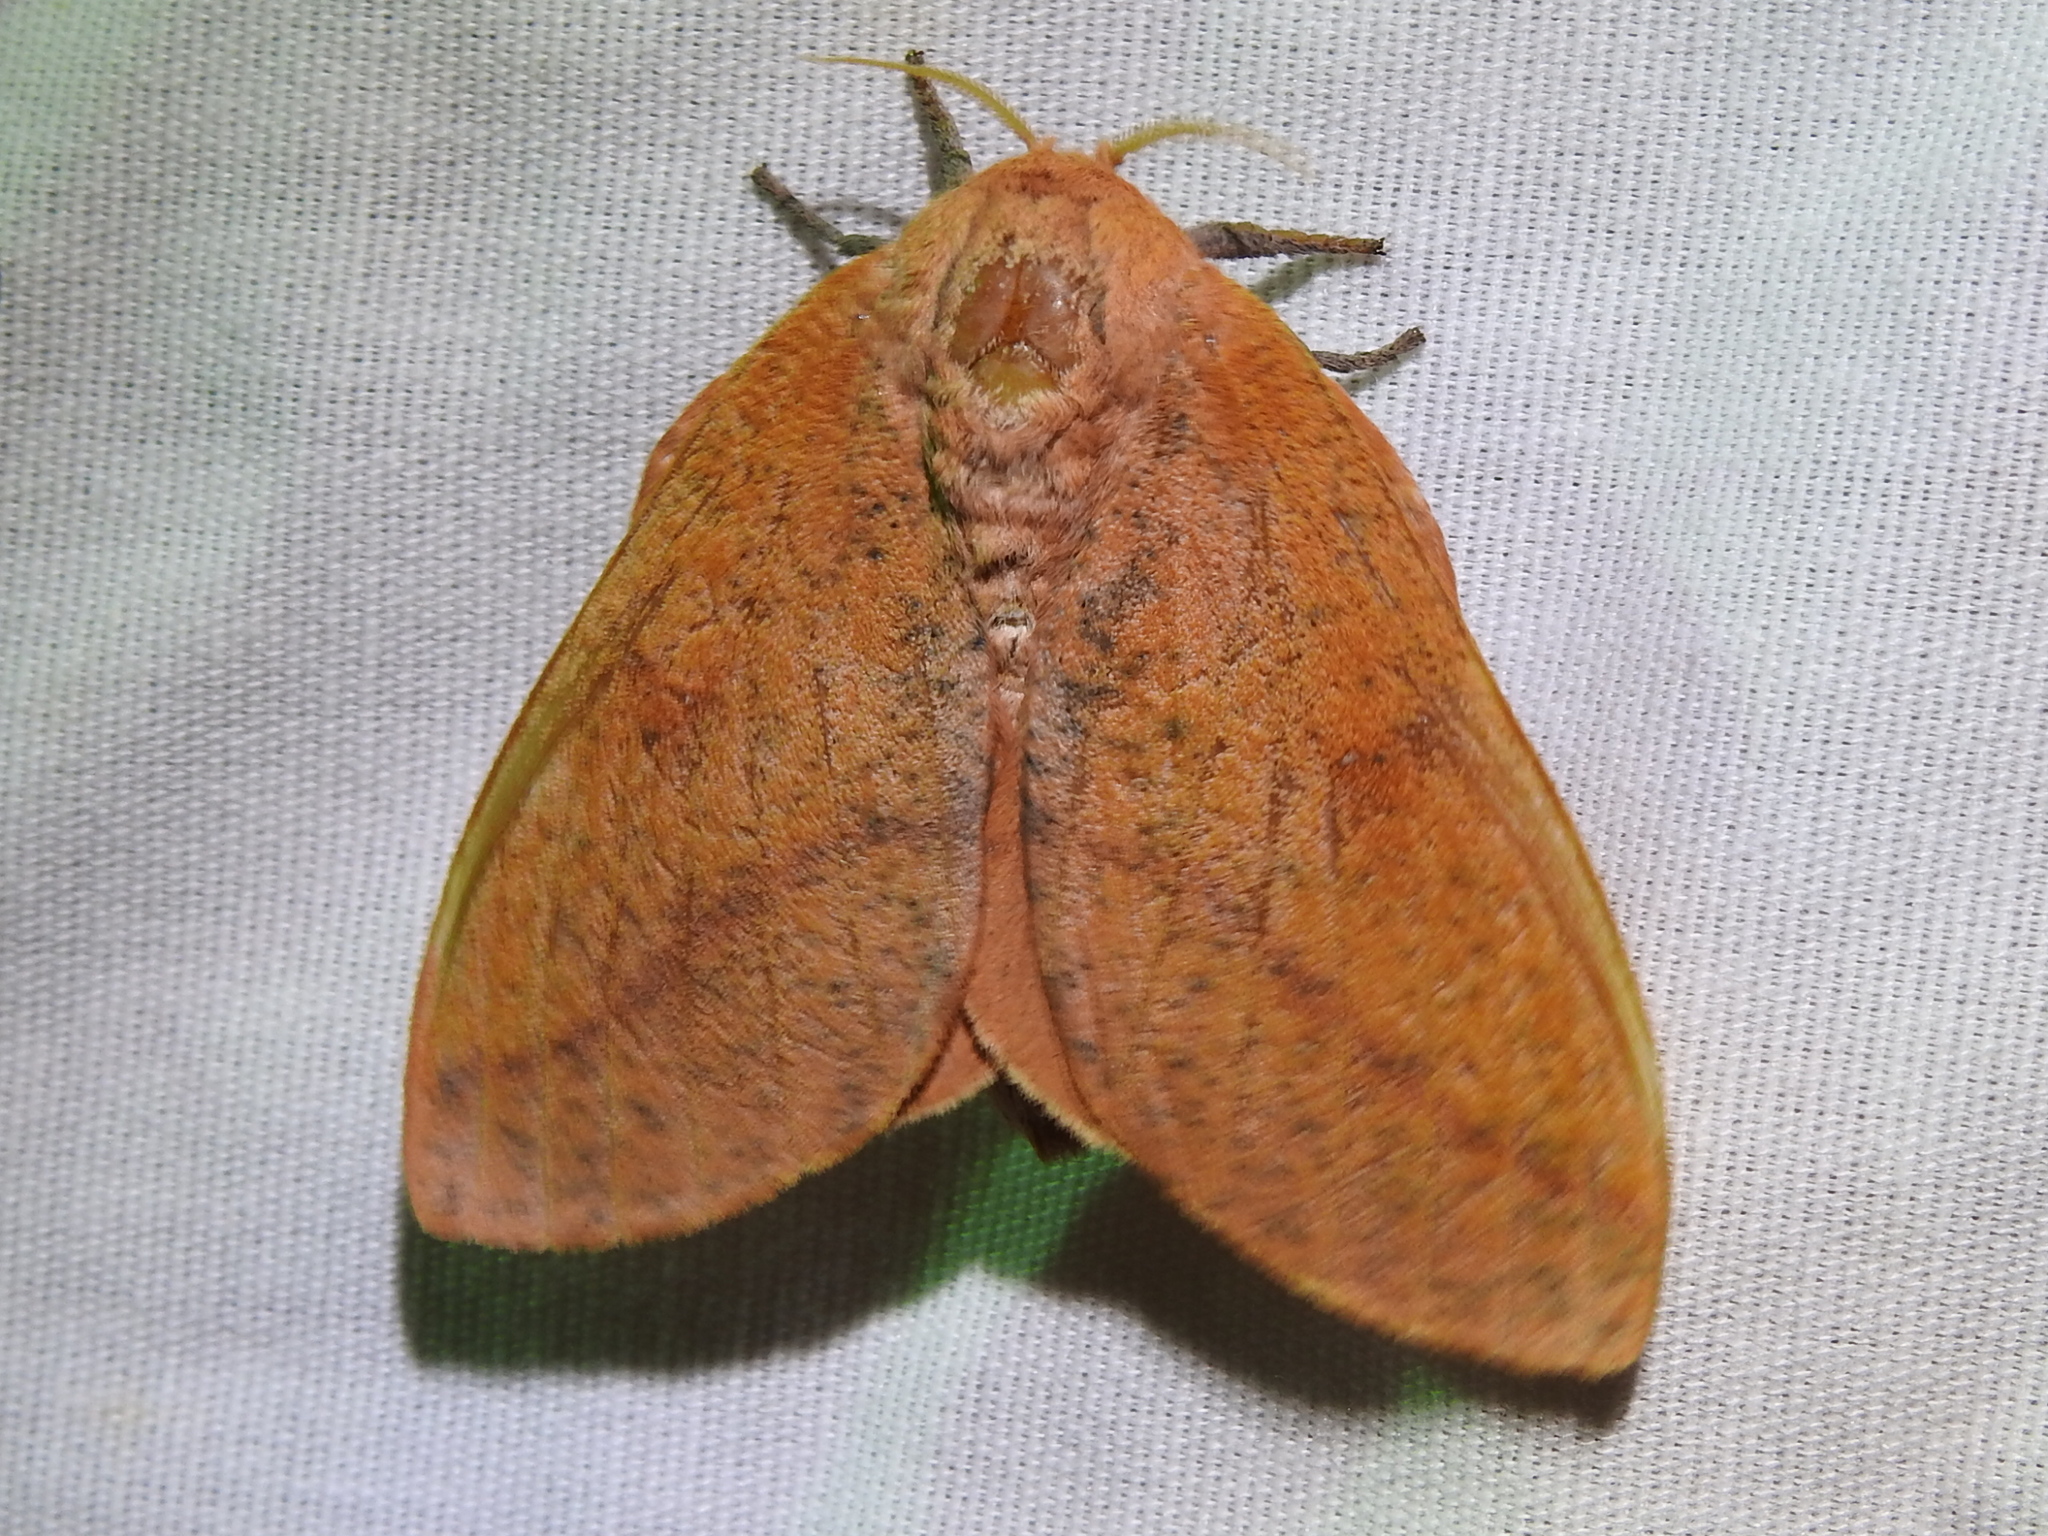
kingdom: Animalia
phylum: Arthropoda
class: Insecta
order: Lepidoptera
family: Saturniidae
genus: Syssphinx
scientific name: Syssphinx bicolor
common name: Honey locust moth
